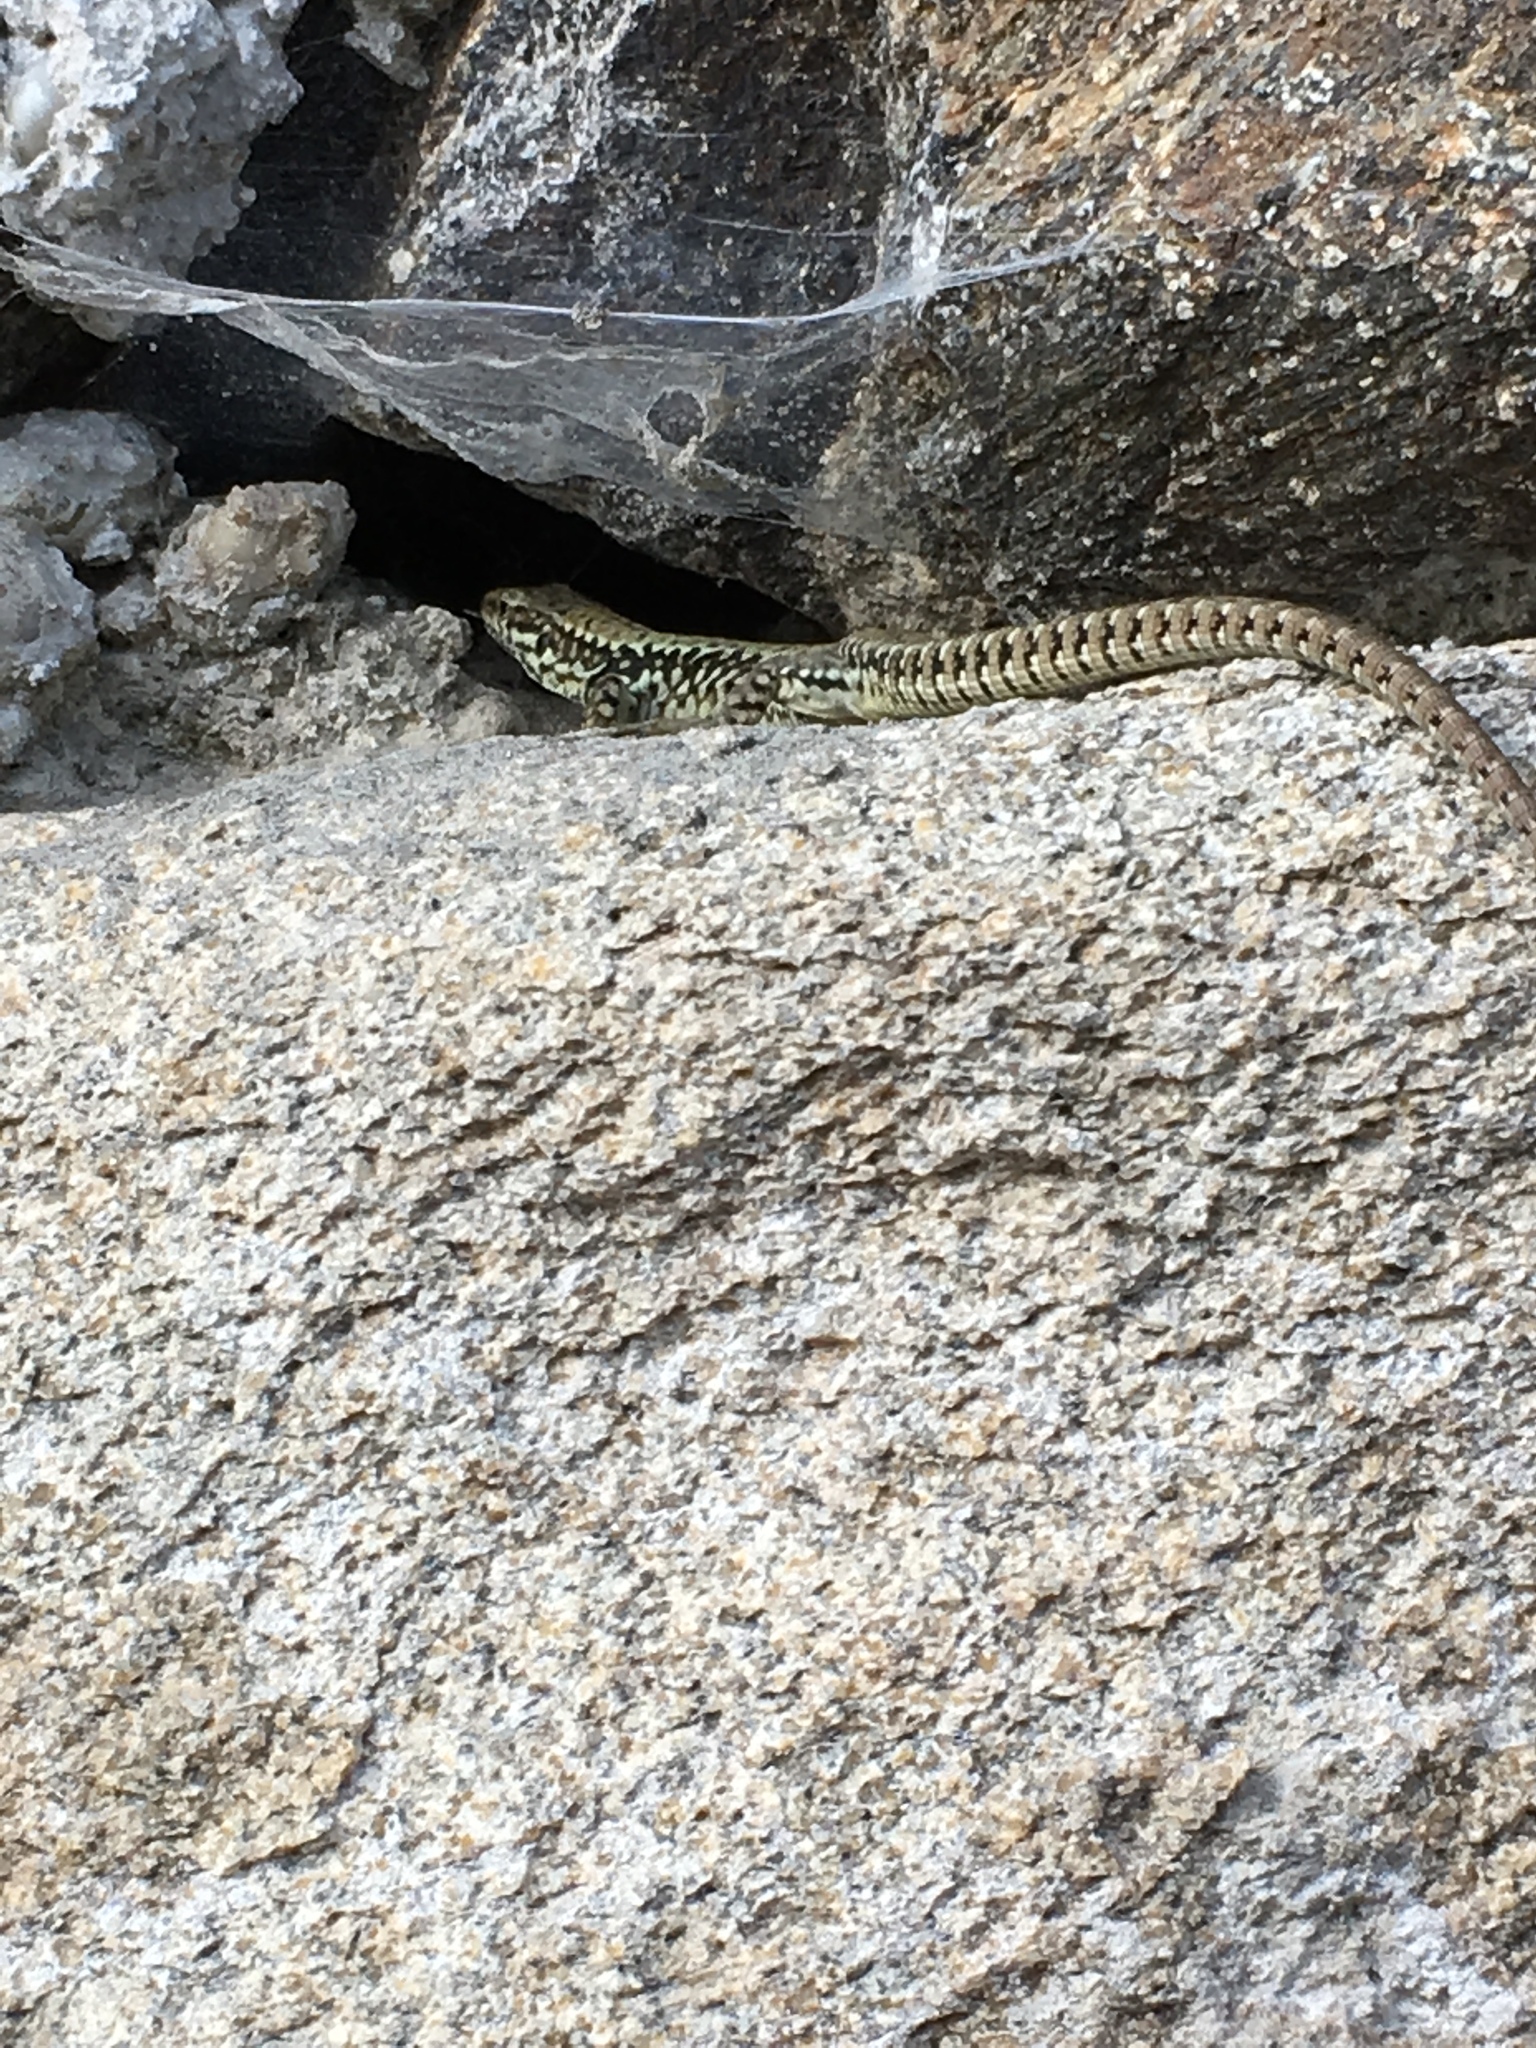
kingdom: Animalia
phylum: Chordata
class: Squamata
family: Lacertidae
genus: Podarcis
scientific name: Podarcis muralis
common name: Common wall lizard
